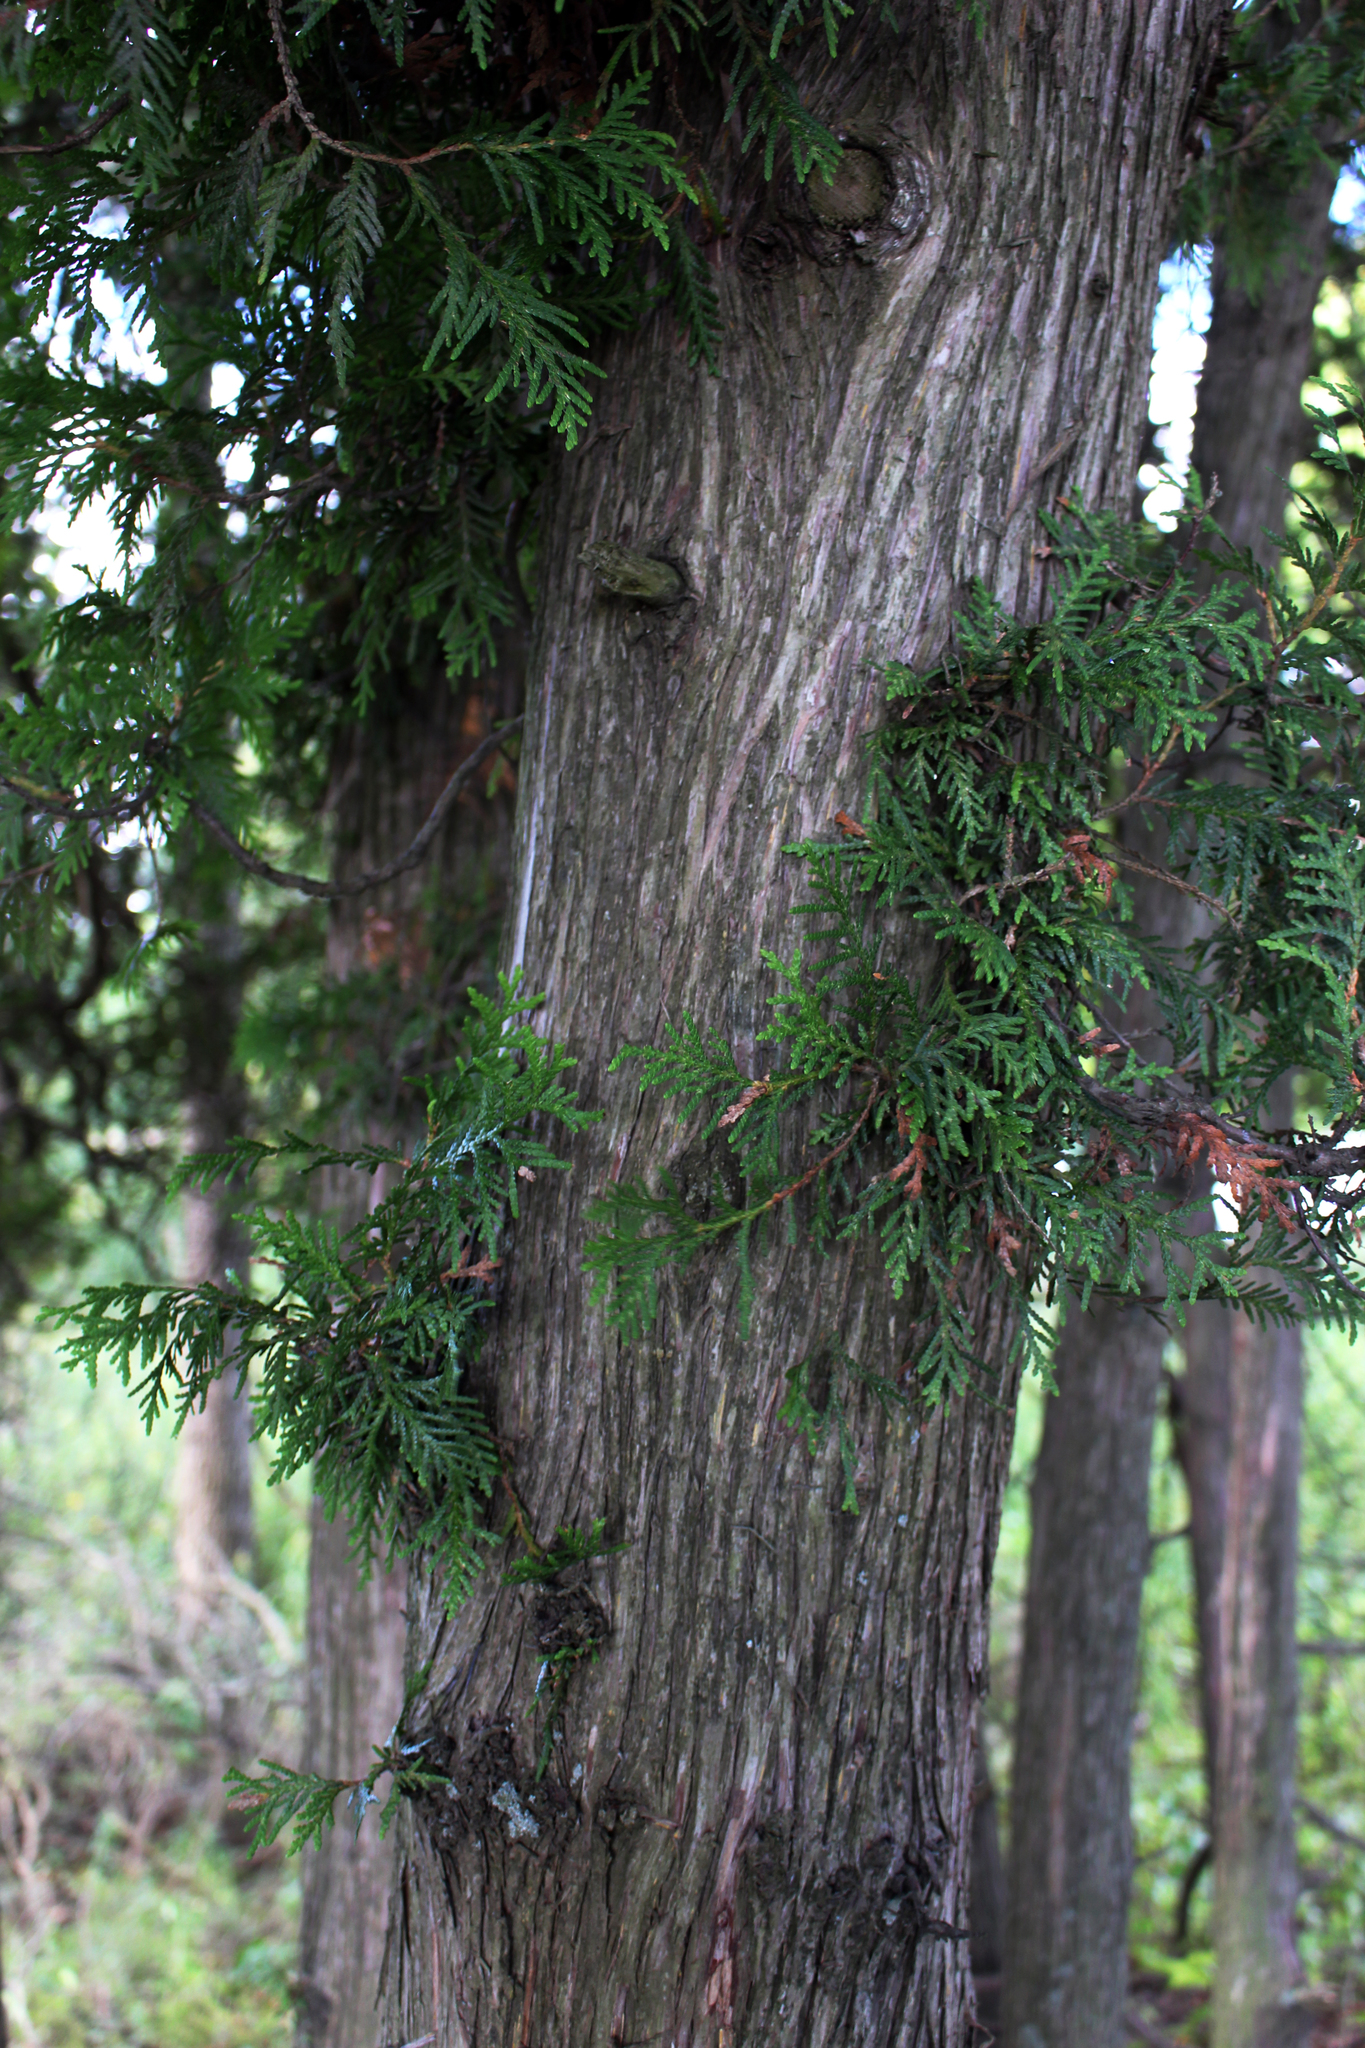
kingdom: Plantae
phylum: Tracheophyta
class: Pinopsida
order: Pinales
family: Cupressaceae
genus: Thuja
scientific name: Thuja occidentalis
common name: Northern white-cedar
